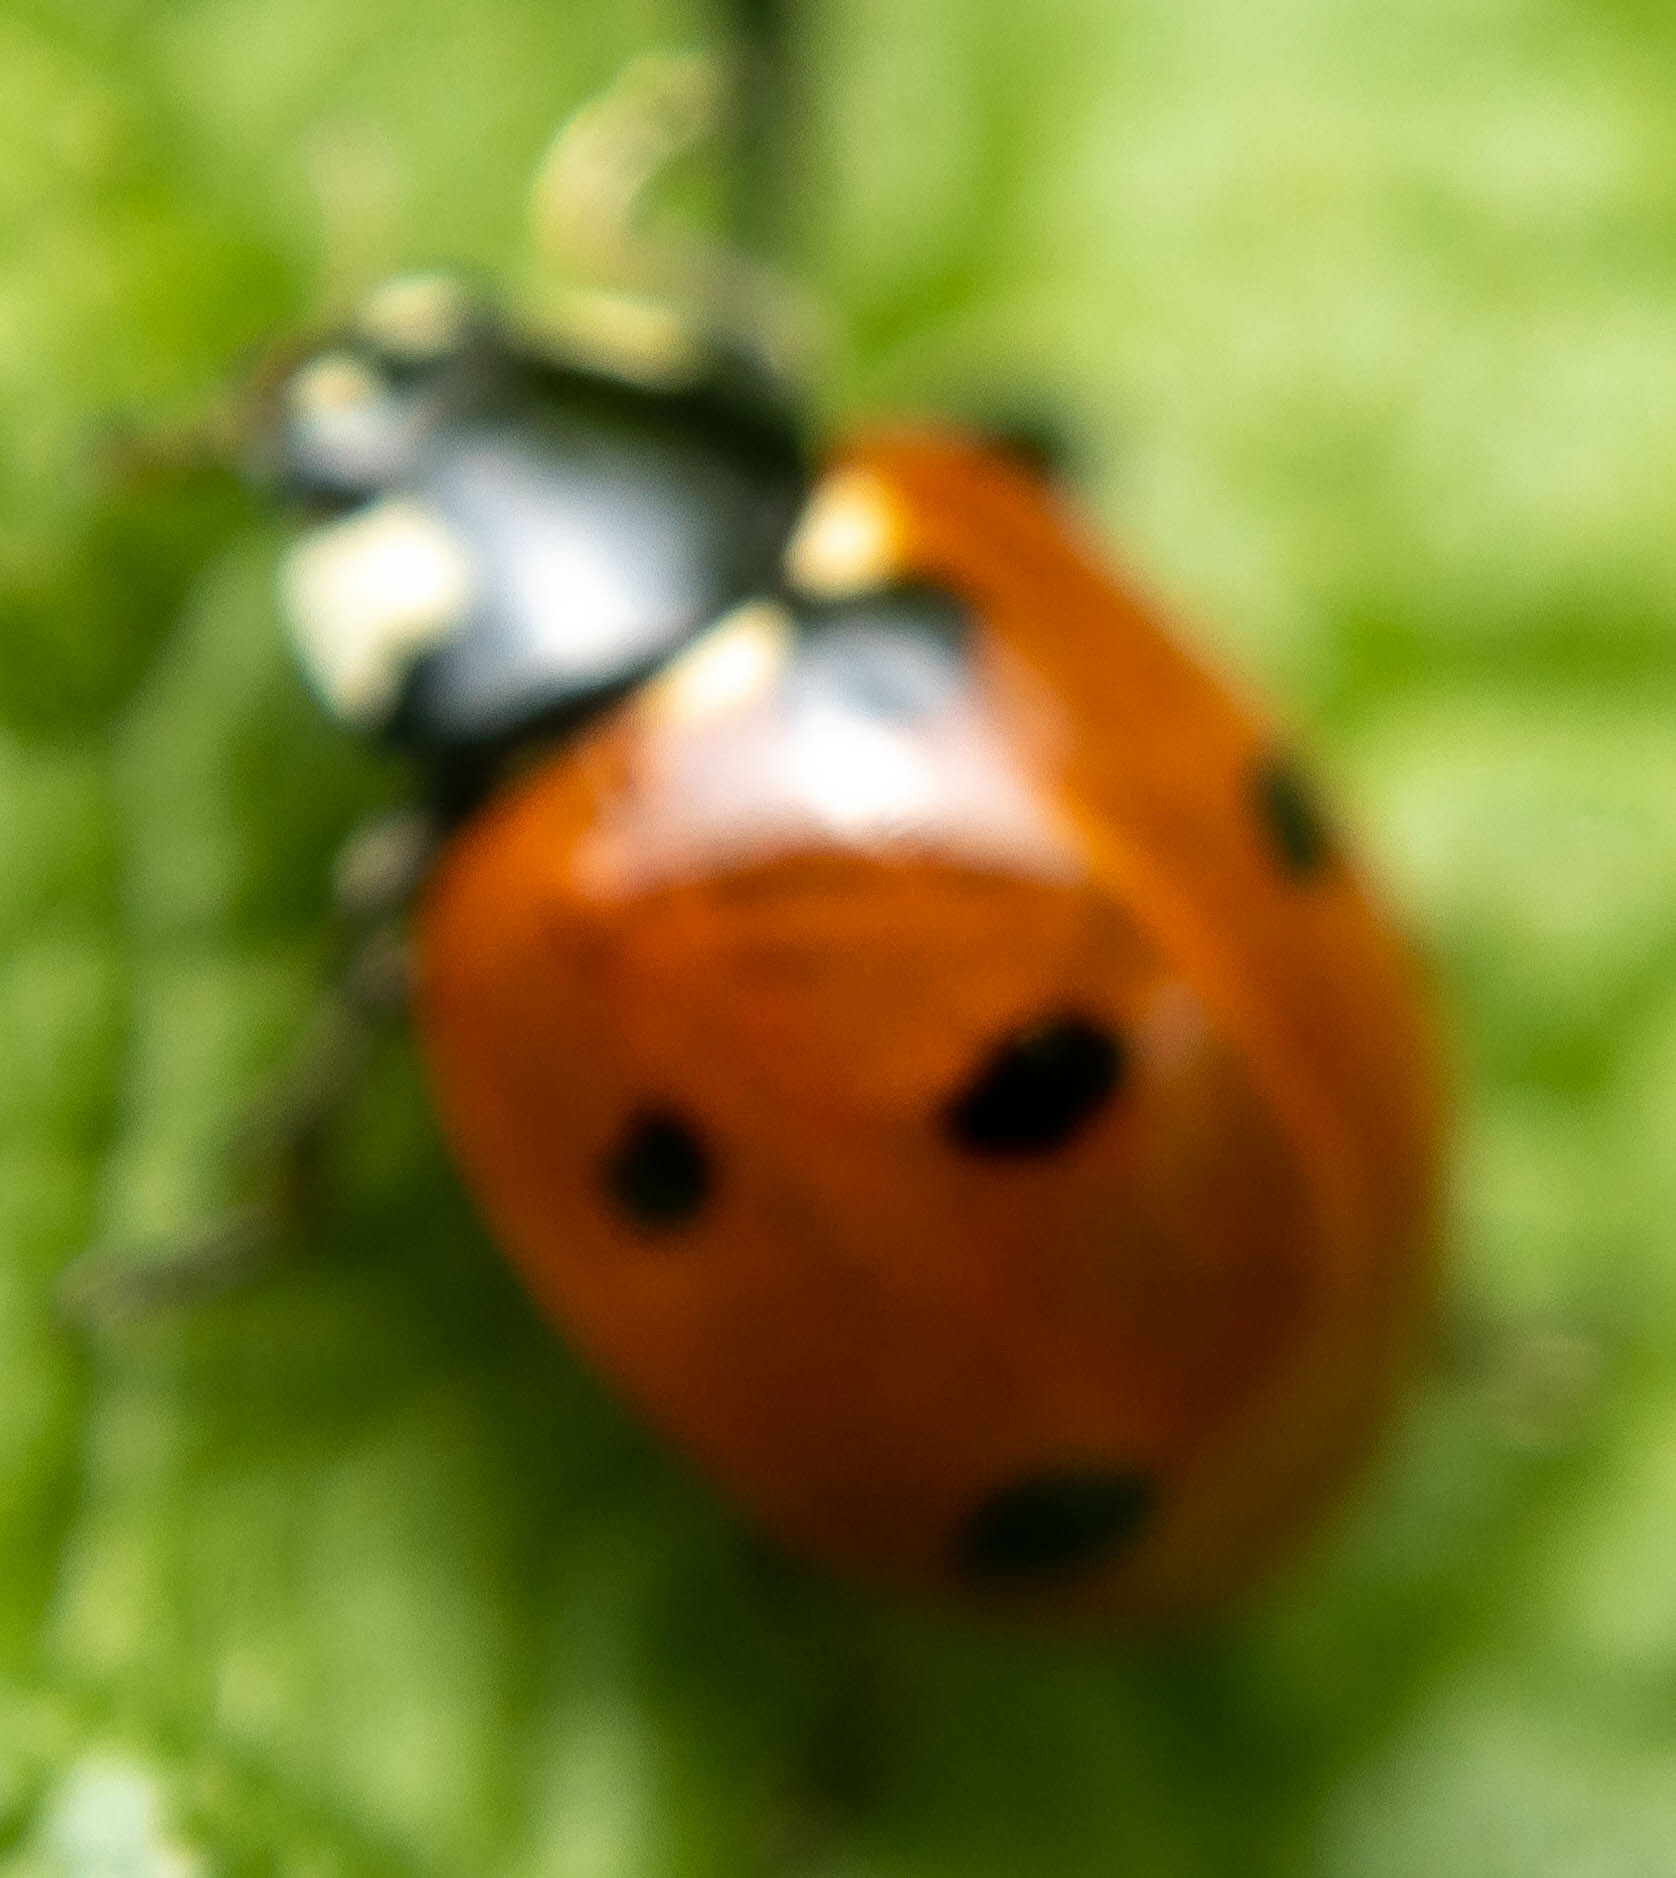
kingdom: Animalia
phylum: Arthropoda
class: Insecta
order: Coleoptera
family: Coccinellidae
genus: Coccinella
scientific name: Coccinella septempunctata
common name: Sevenspotted lady beetle
